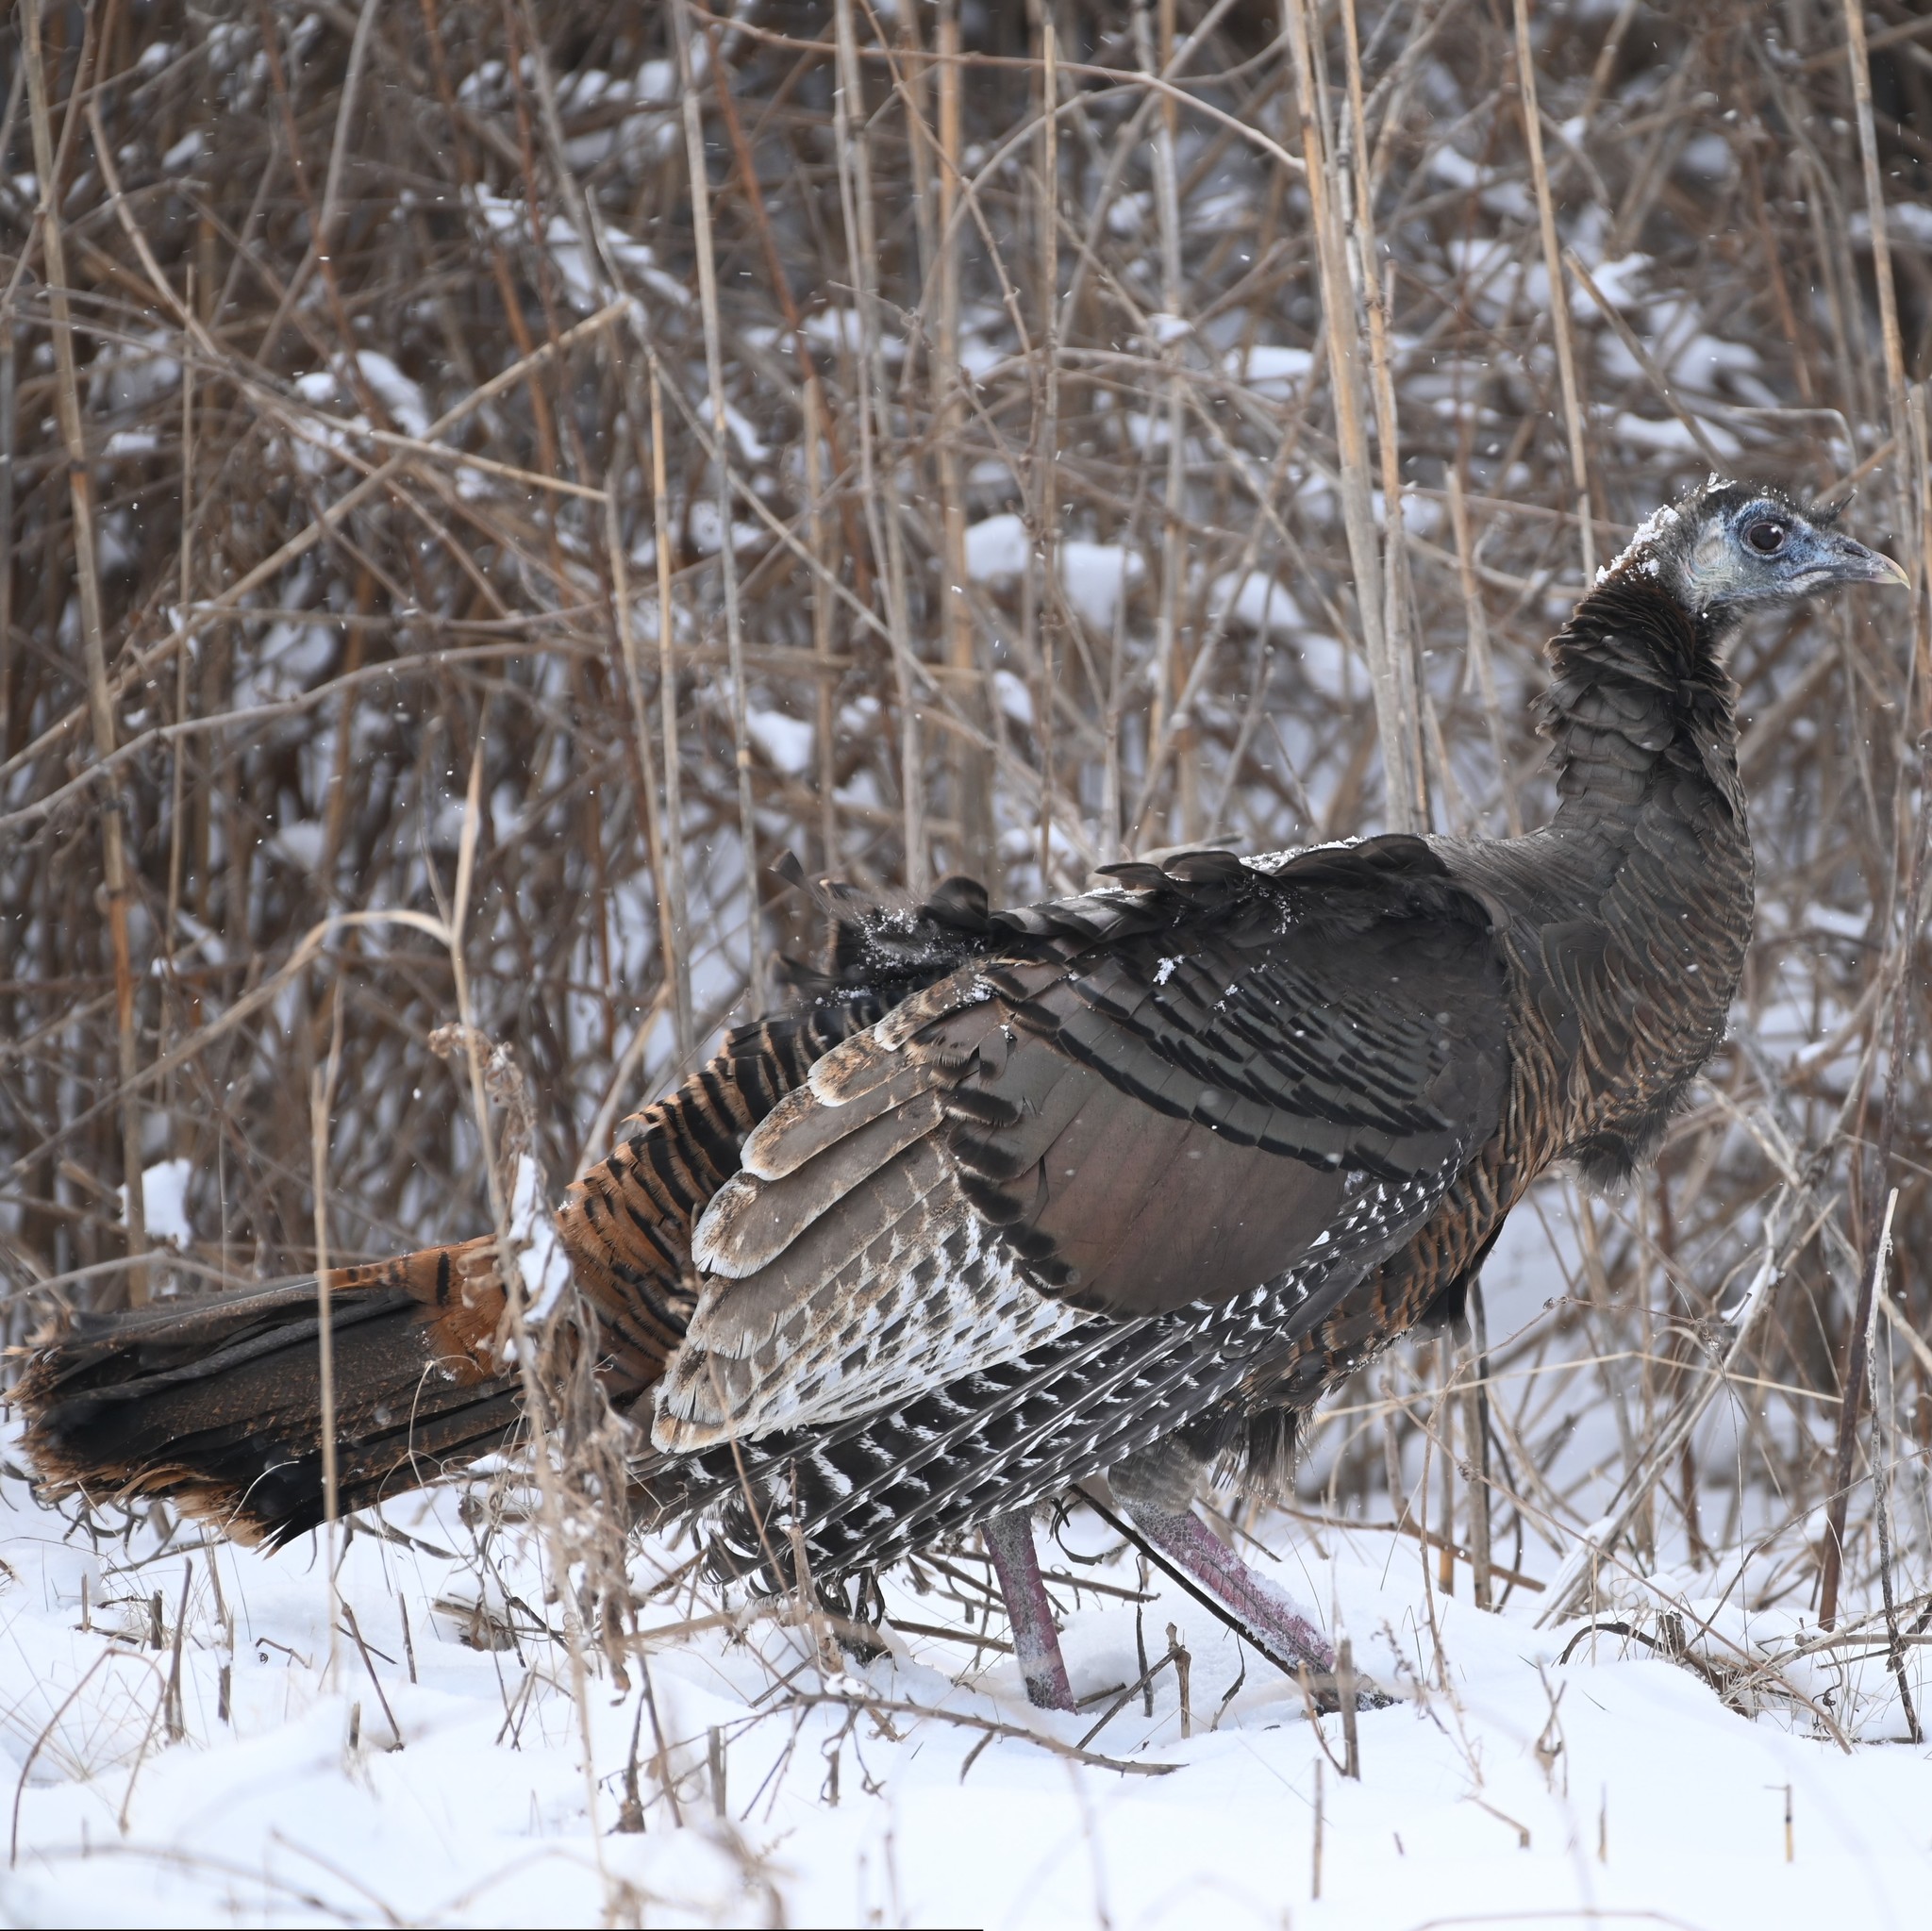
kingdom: Animalia
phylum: Chordata
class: Aves
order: Galliformes
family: Phasianidae
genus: Meleagris
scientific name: Meleagris gallopavo
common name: Wild turkey
